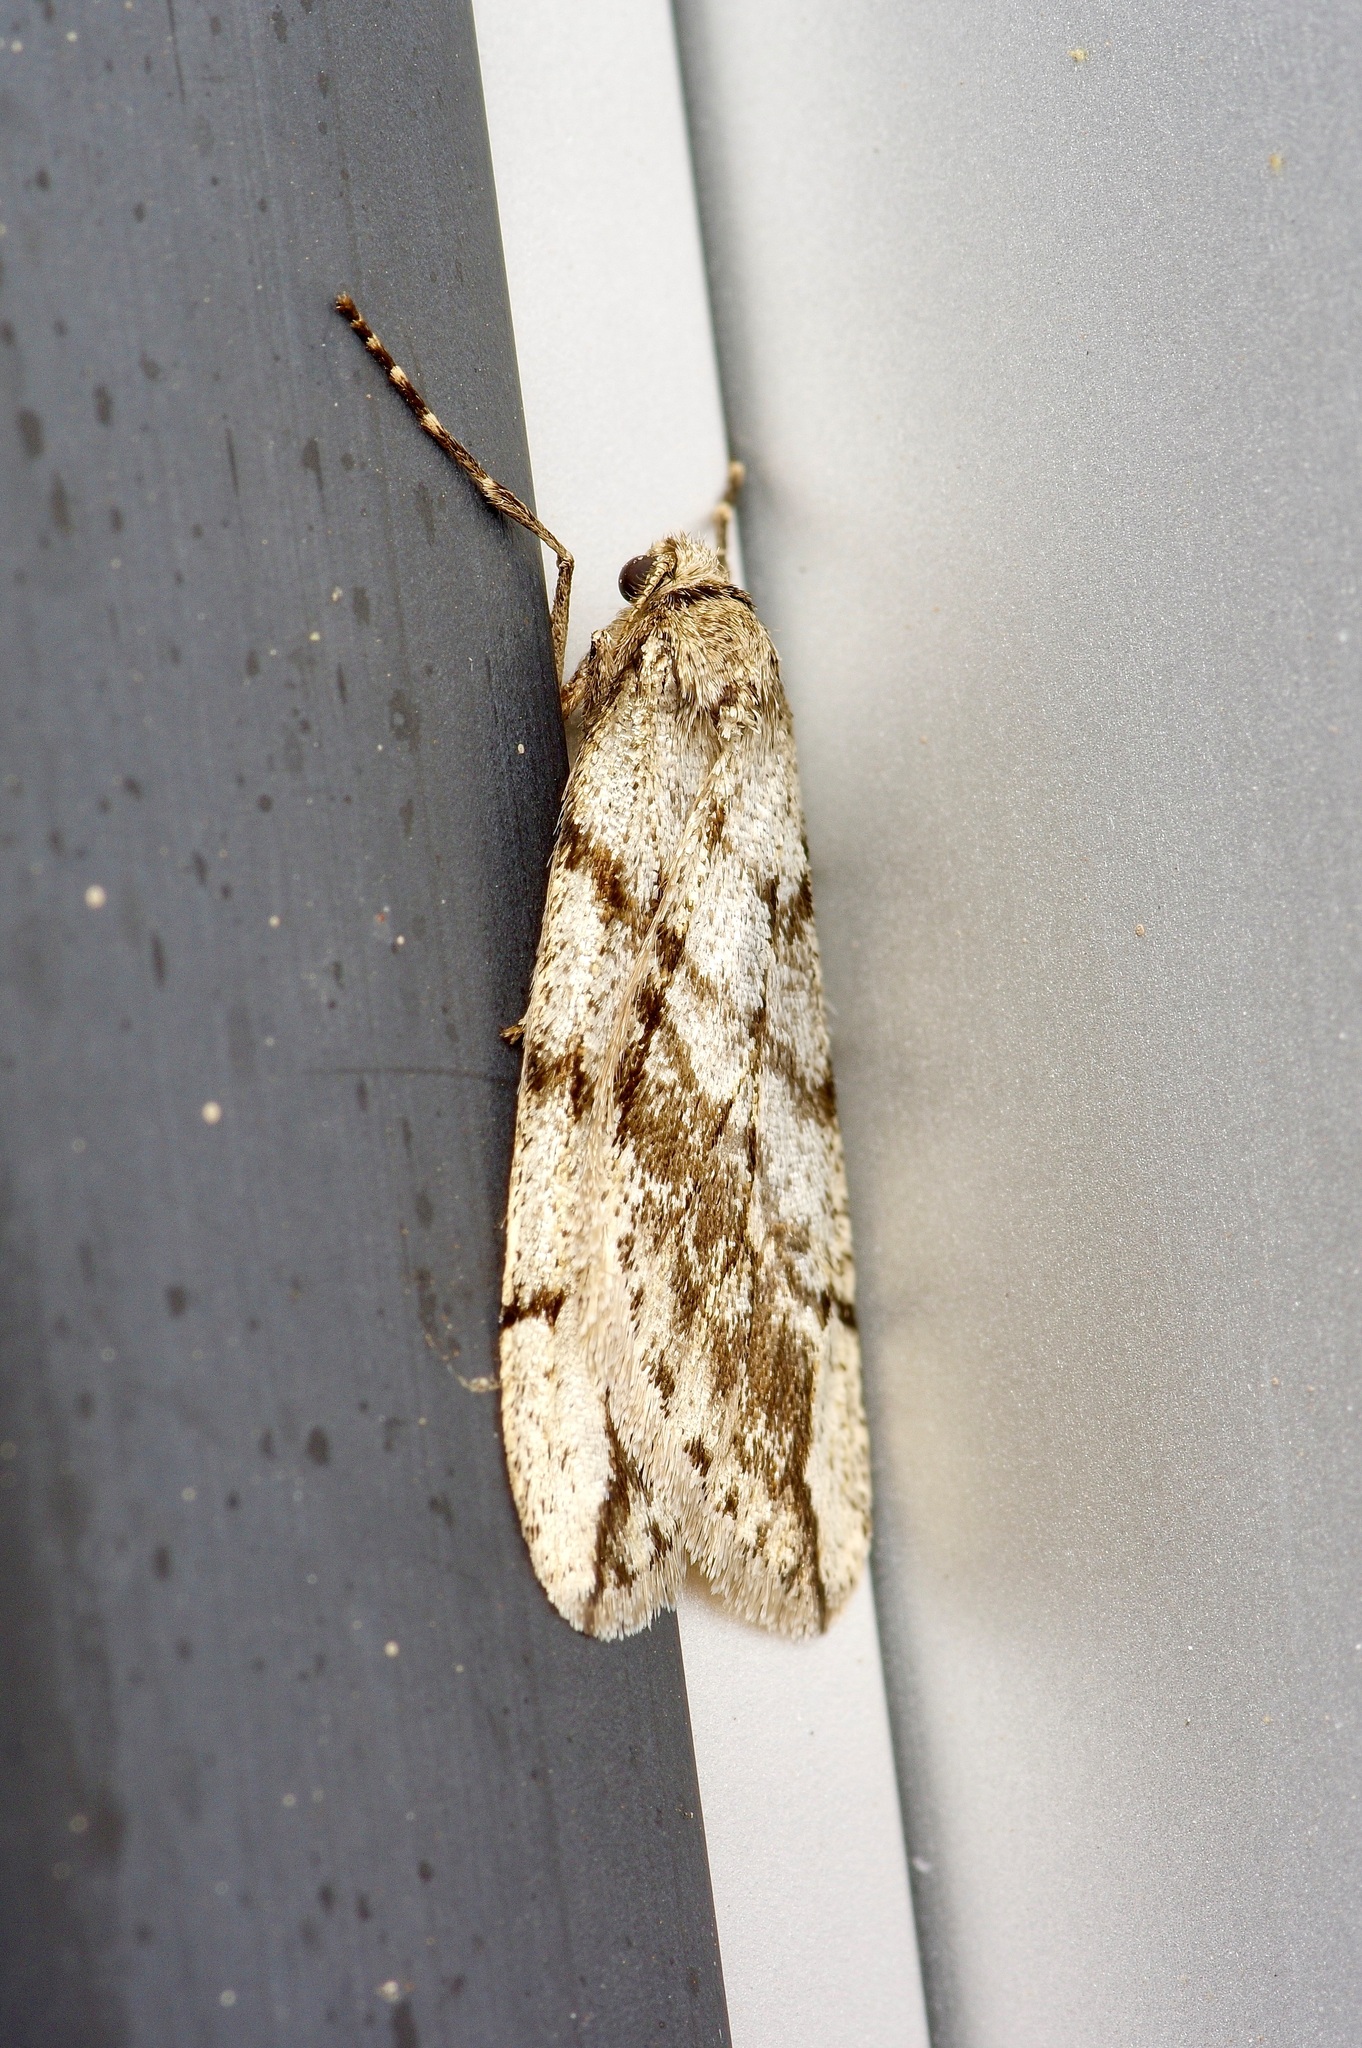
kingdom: Animalia
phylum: Arthropoda
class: Insecta
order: Lepidoptera
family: Geometridae
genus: Paleacrita
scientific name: Paleacrita vernata
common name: Spring cankerworm
